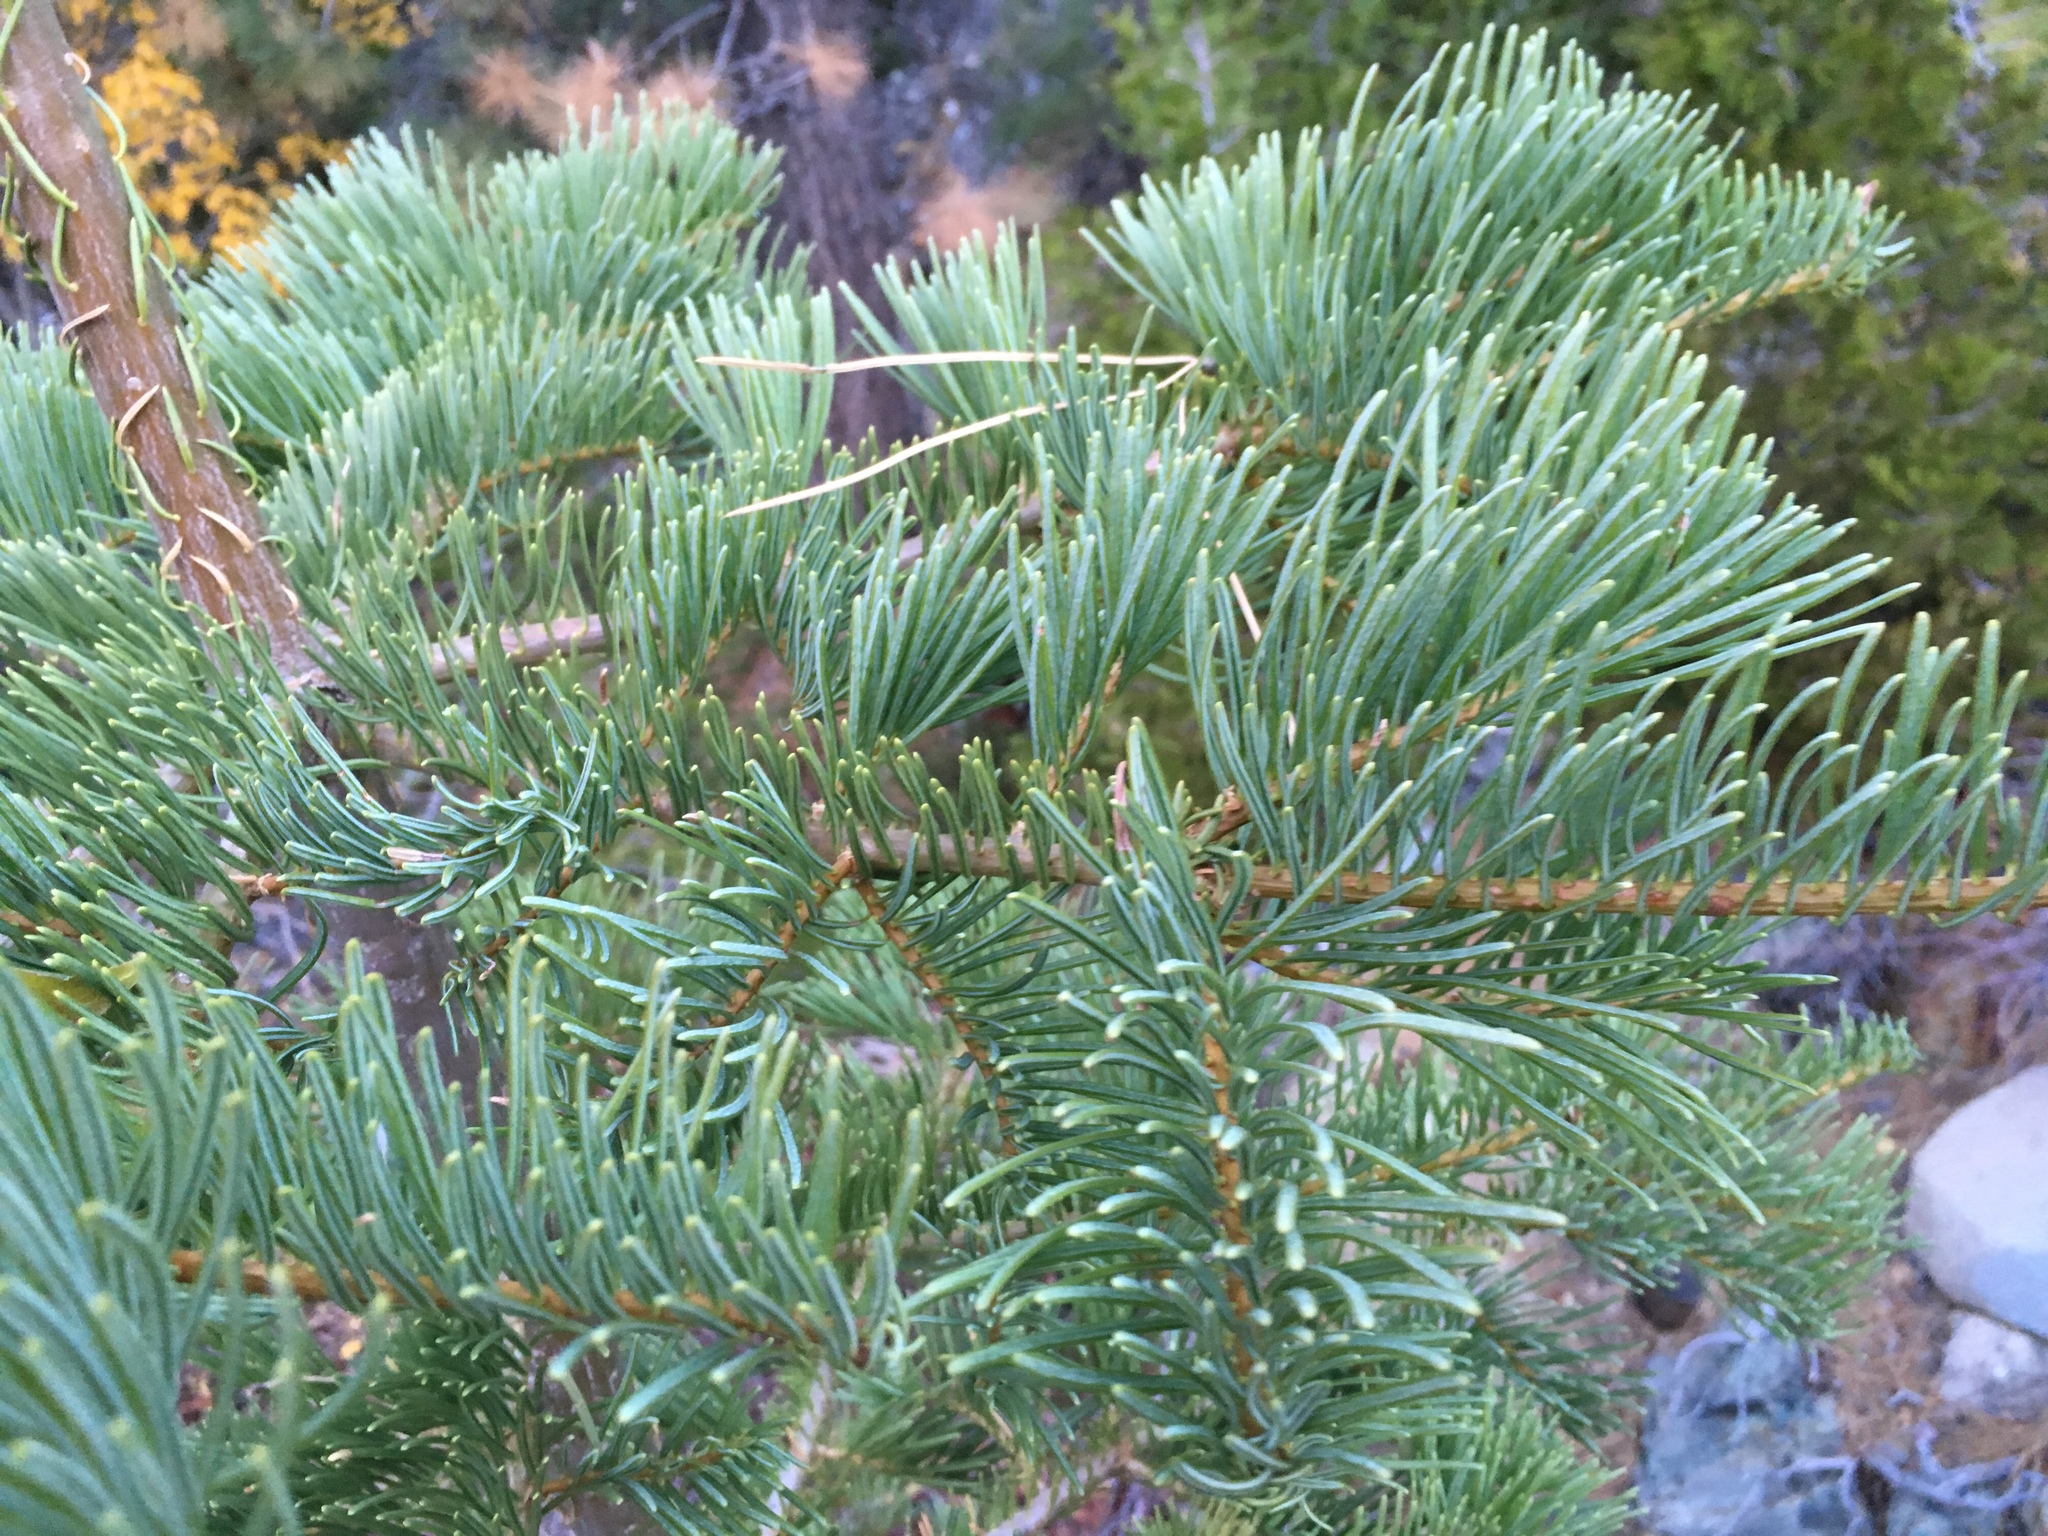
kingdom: Plantae
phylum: Tracheophyta
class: Pinopsida
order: Pinales
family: Pinaceae
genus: Abies
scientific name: Abies concolor
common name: Colorado fir
